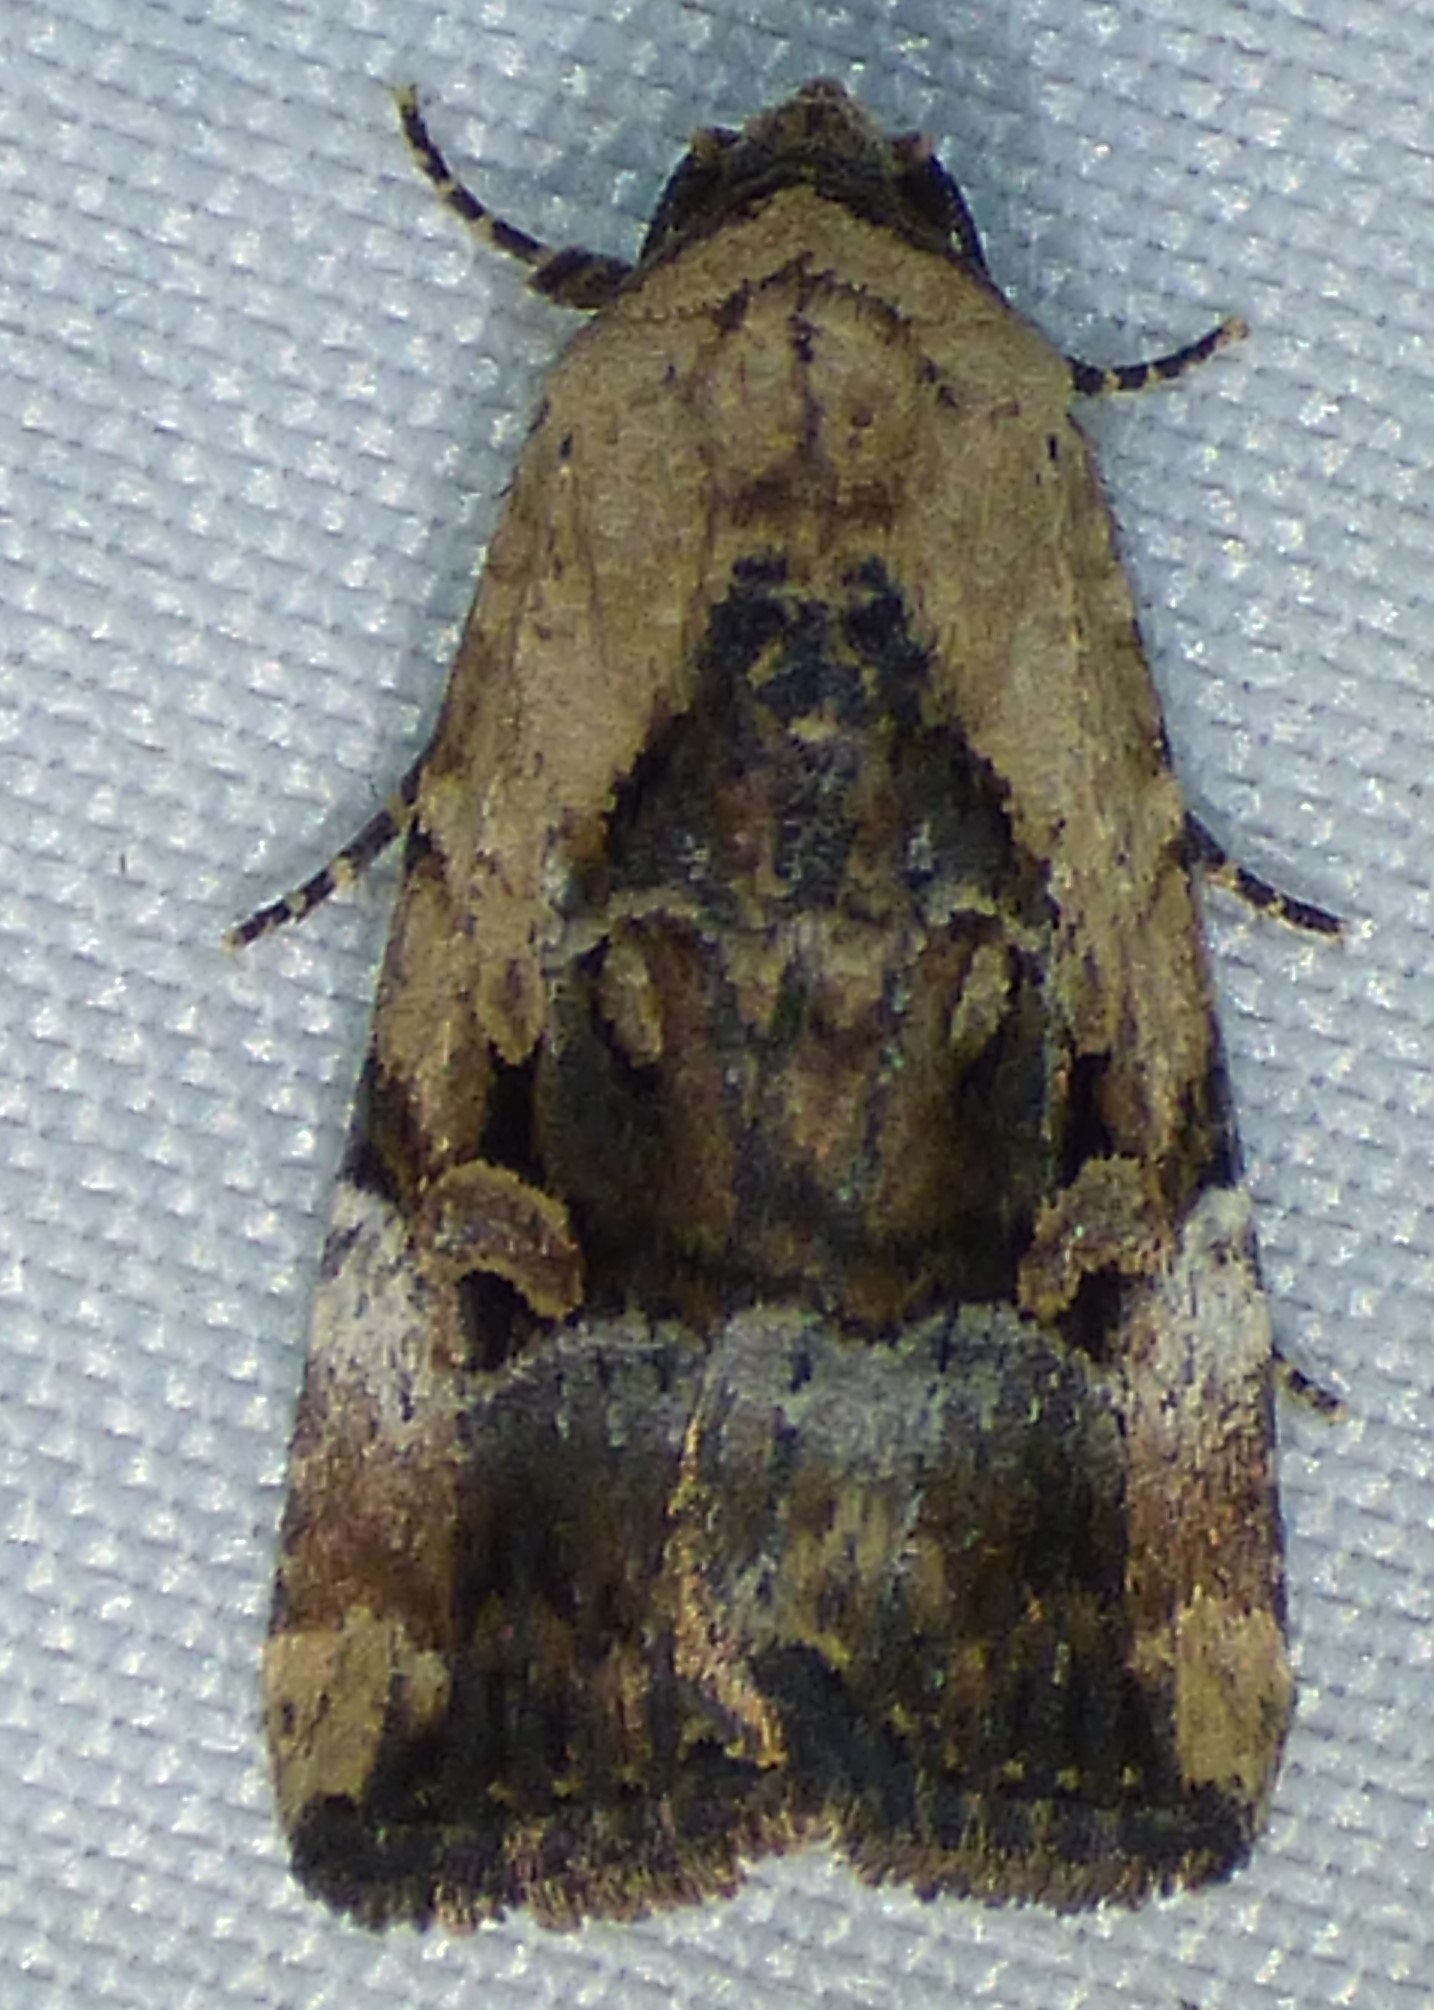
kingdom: Animalia
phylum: Arthropoda
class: Insecta
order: Lepidoptera
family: Noctuidae
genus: Elaphria
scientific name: Elaphria chalcedonia
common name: Chalcedony midget
